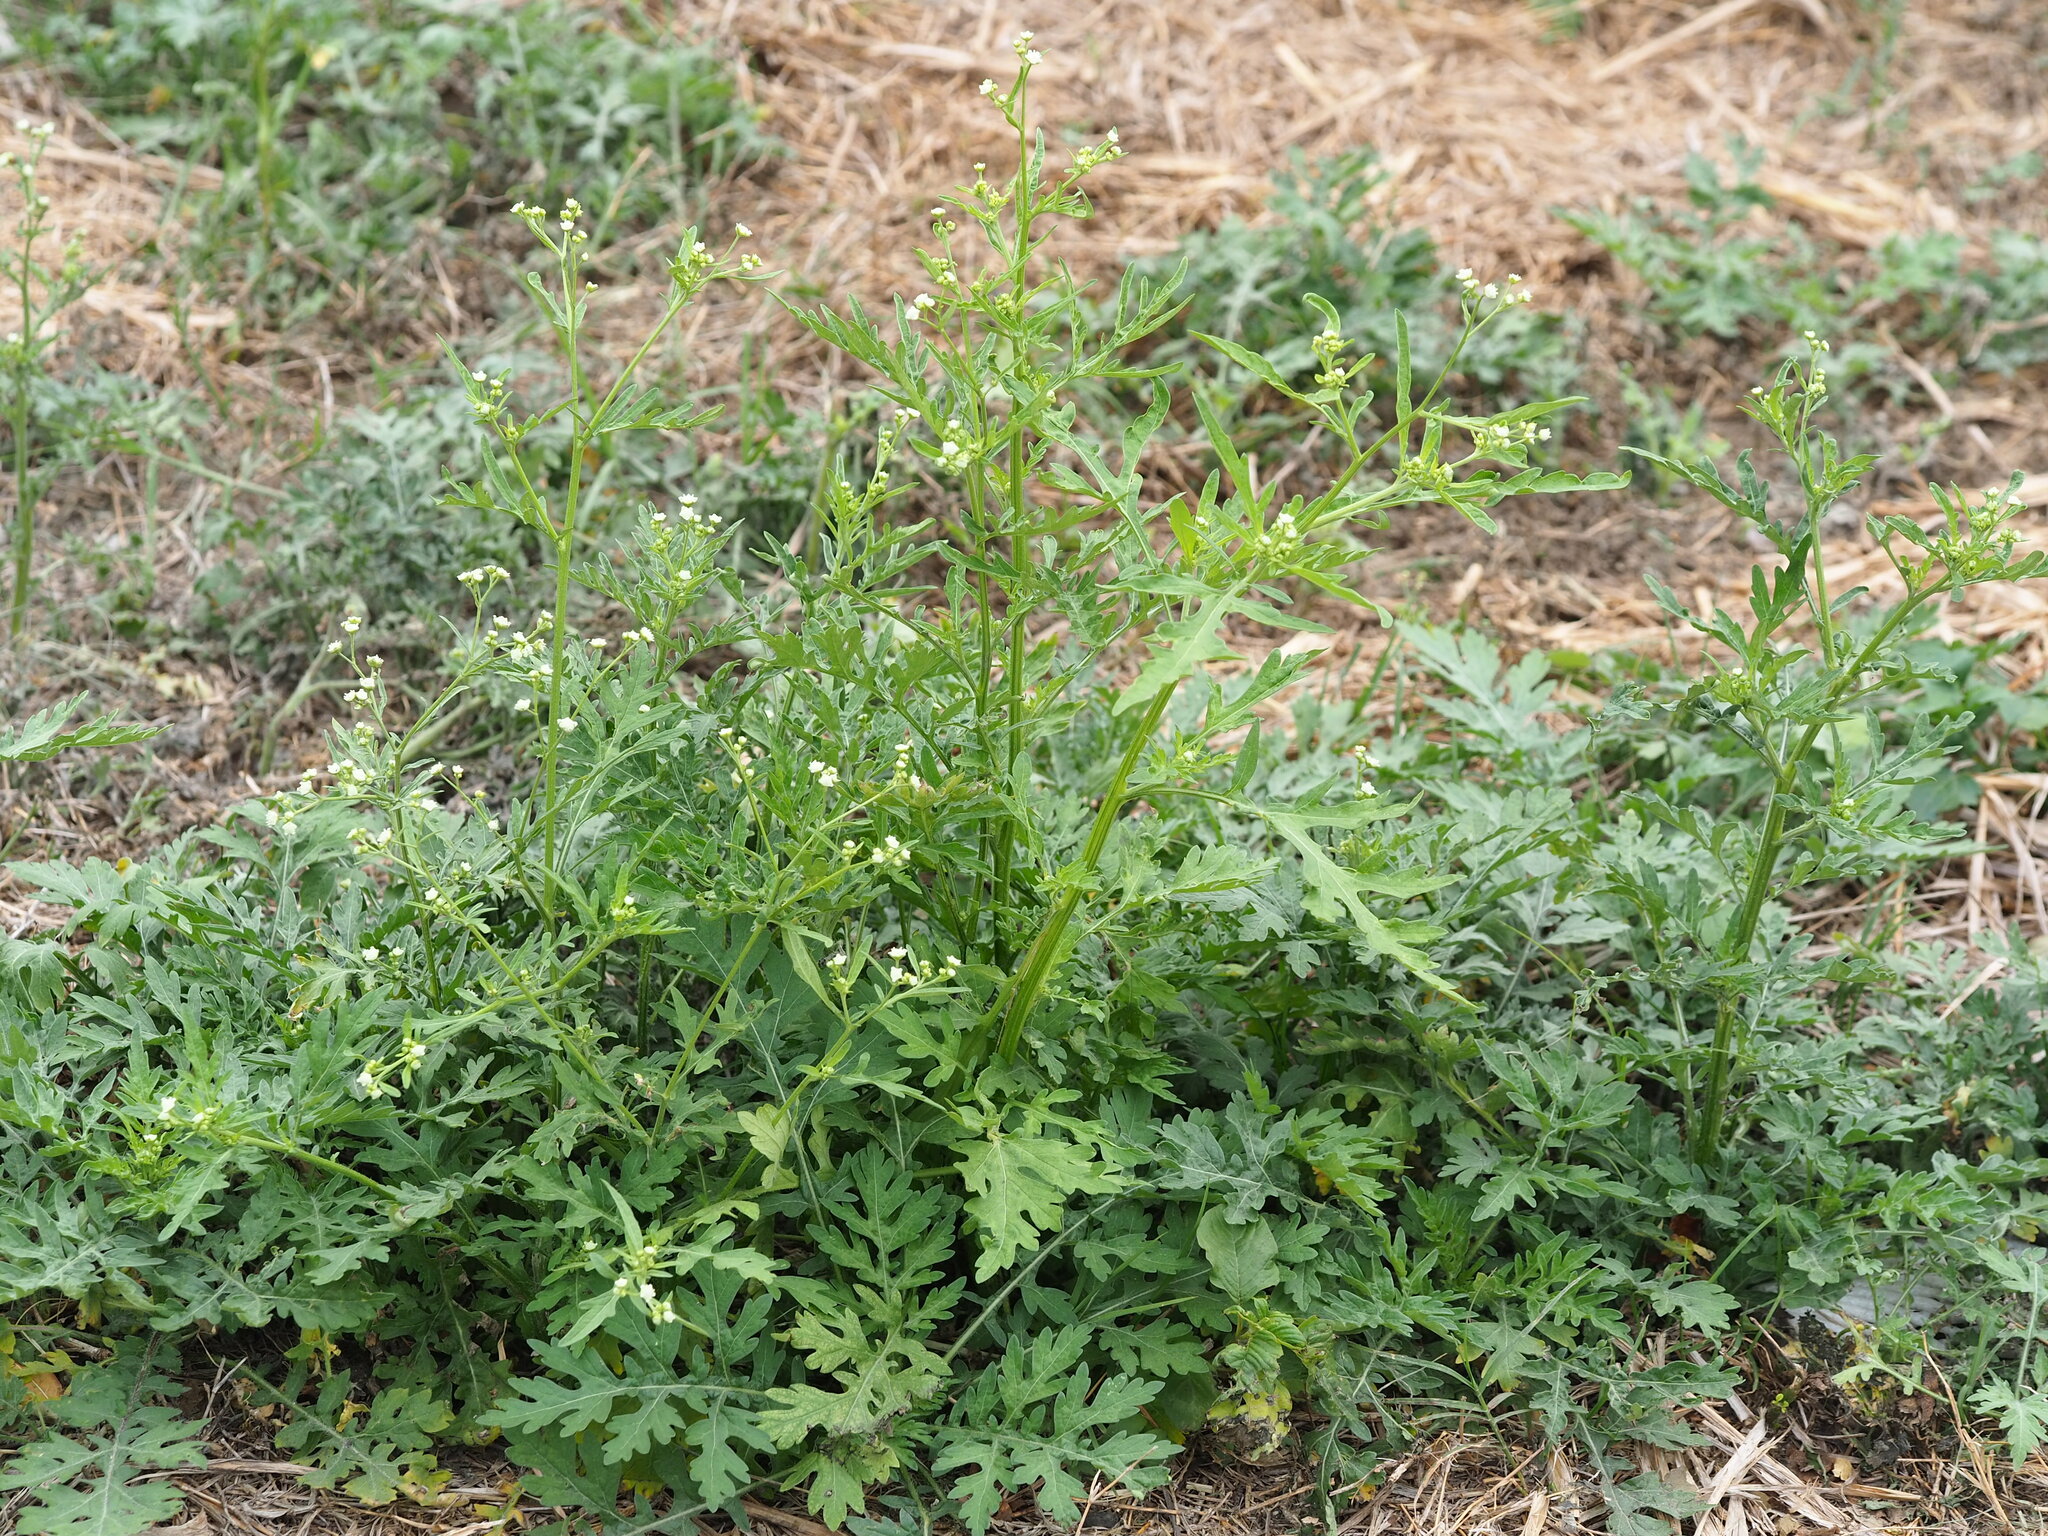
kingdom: Plantae
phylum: Tracheophyta
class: Magnoliopsida
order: Asterales
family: Asteraceae
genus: Parthenium
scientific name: Parthenium hysterophorus
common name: Santa maria feverfew
